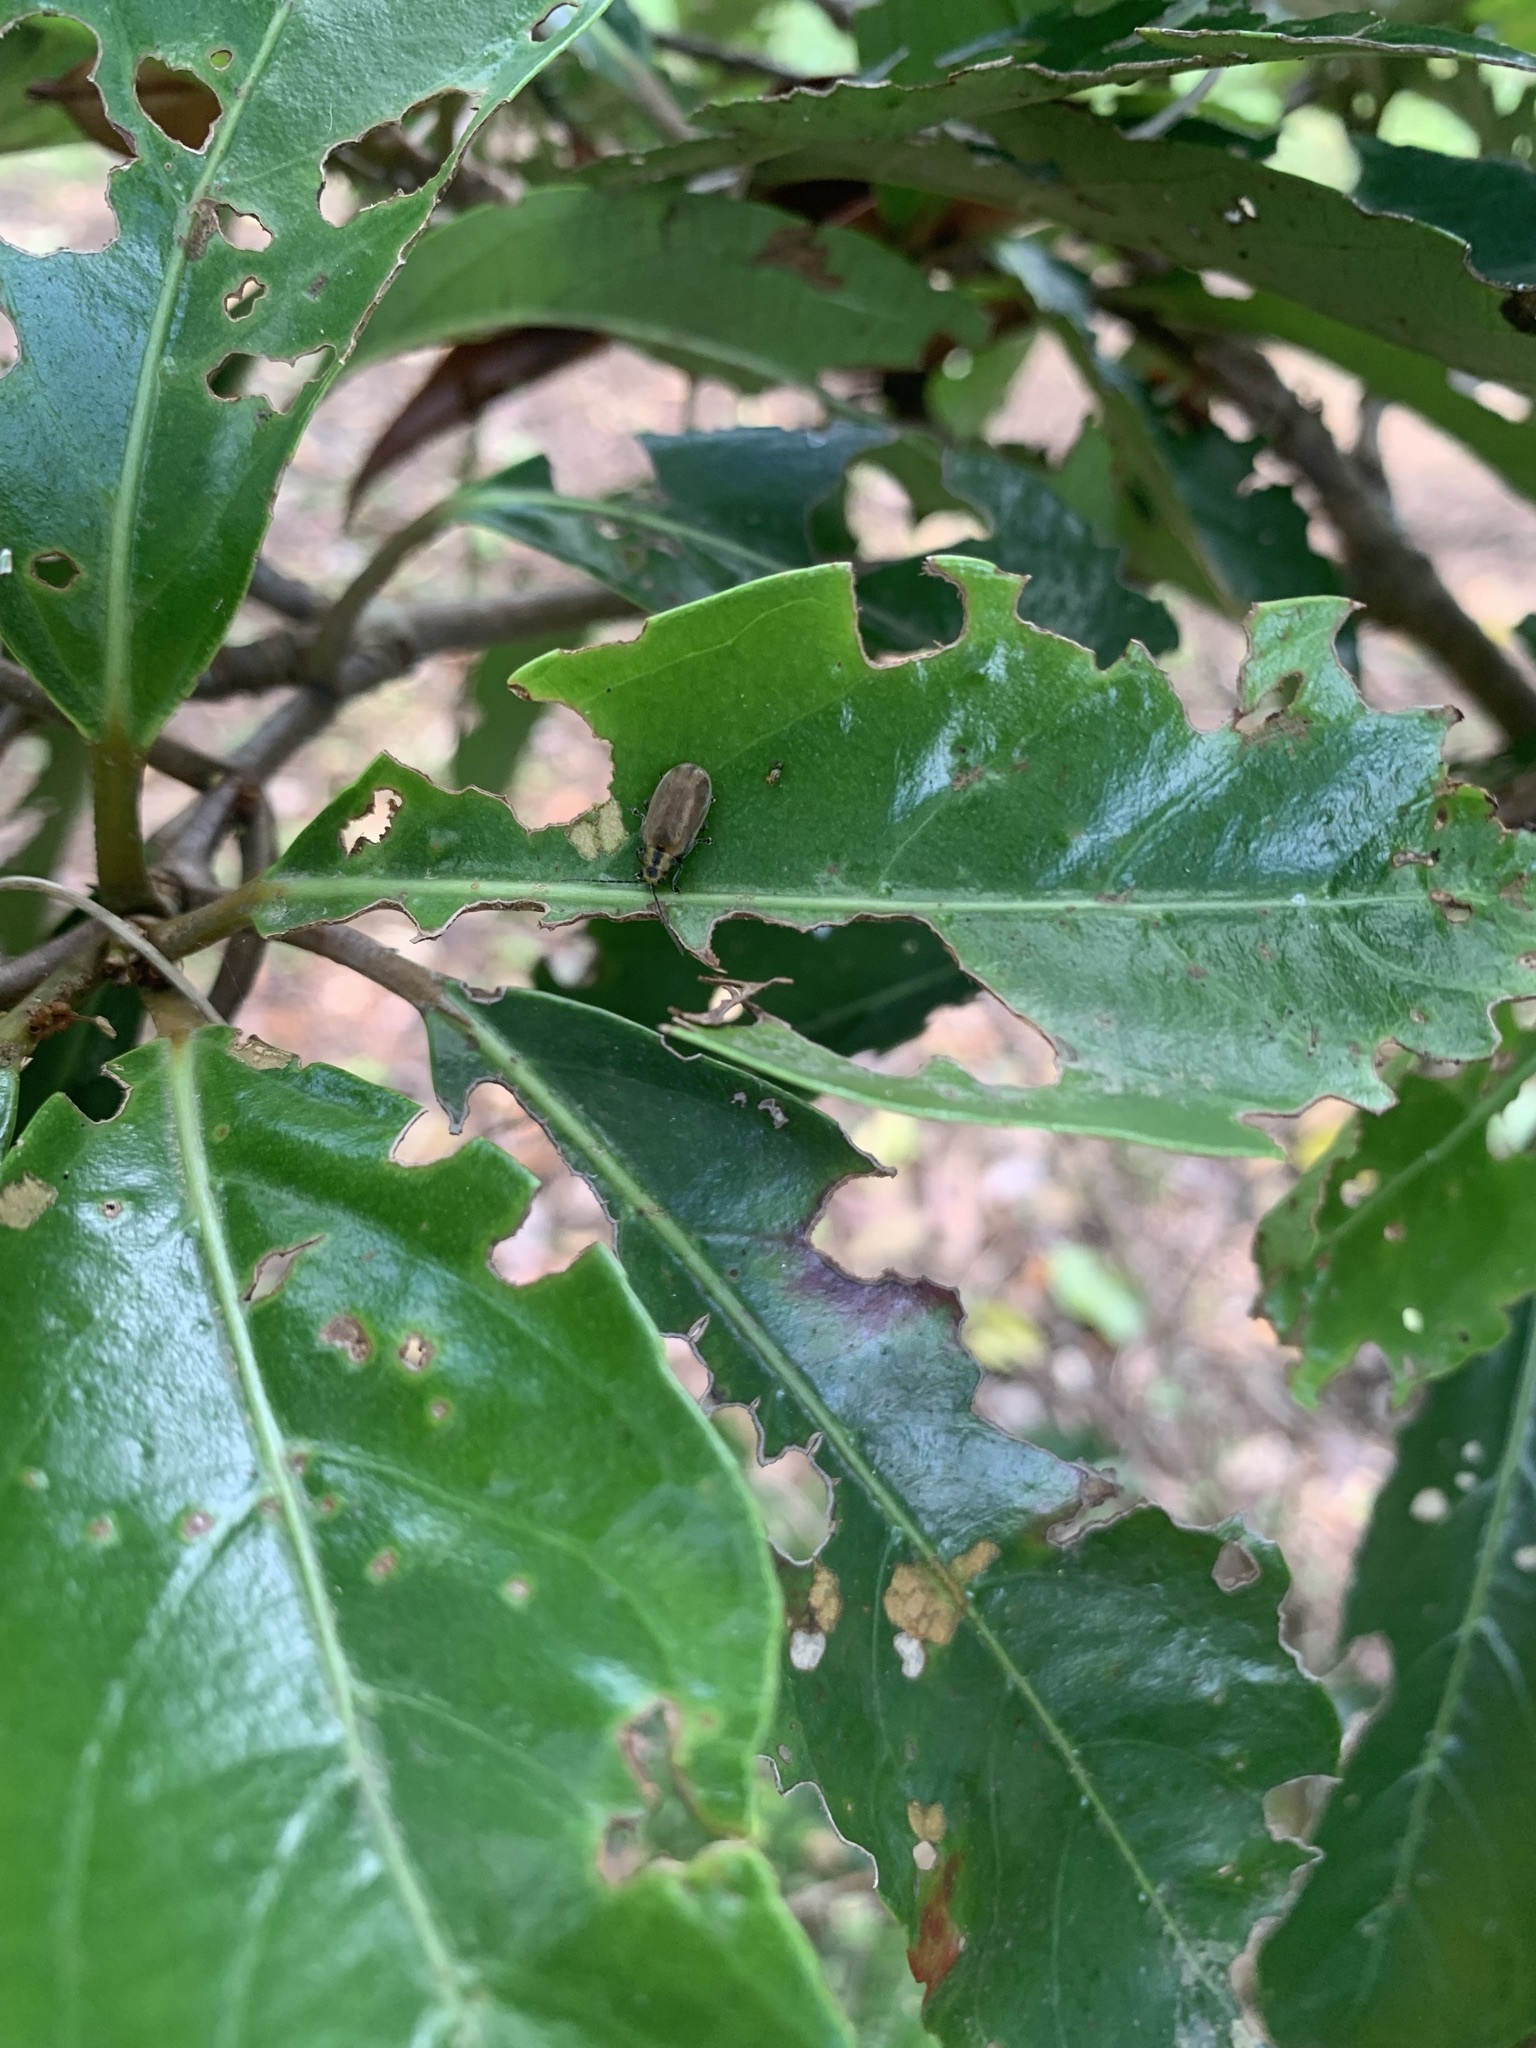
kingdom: Animalia
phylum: Arthropoda
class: Insecta
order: Coleoptera
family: Chrysomelidae
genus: Neogalerucella
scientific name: Neogalerucella calmariensis
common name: Black-margined loosestrife beetle
